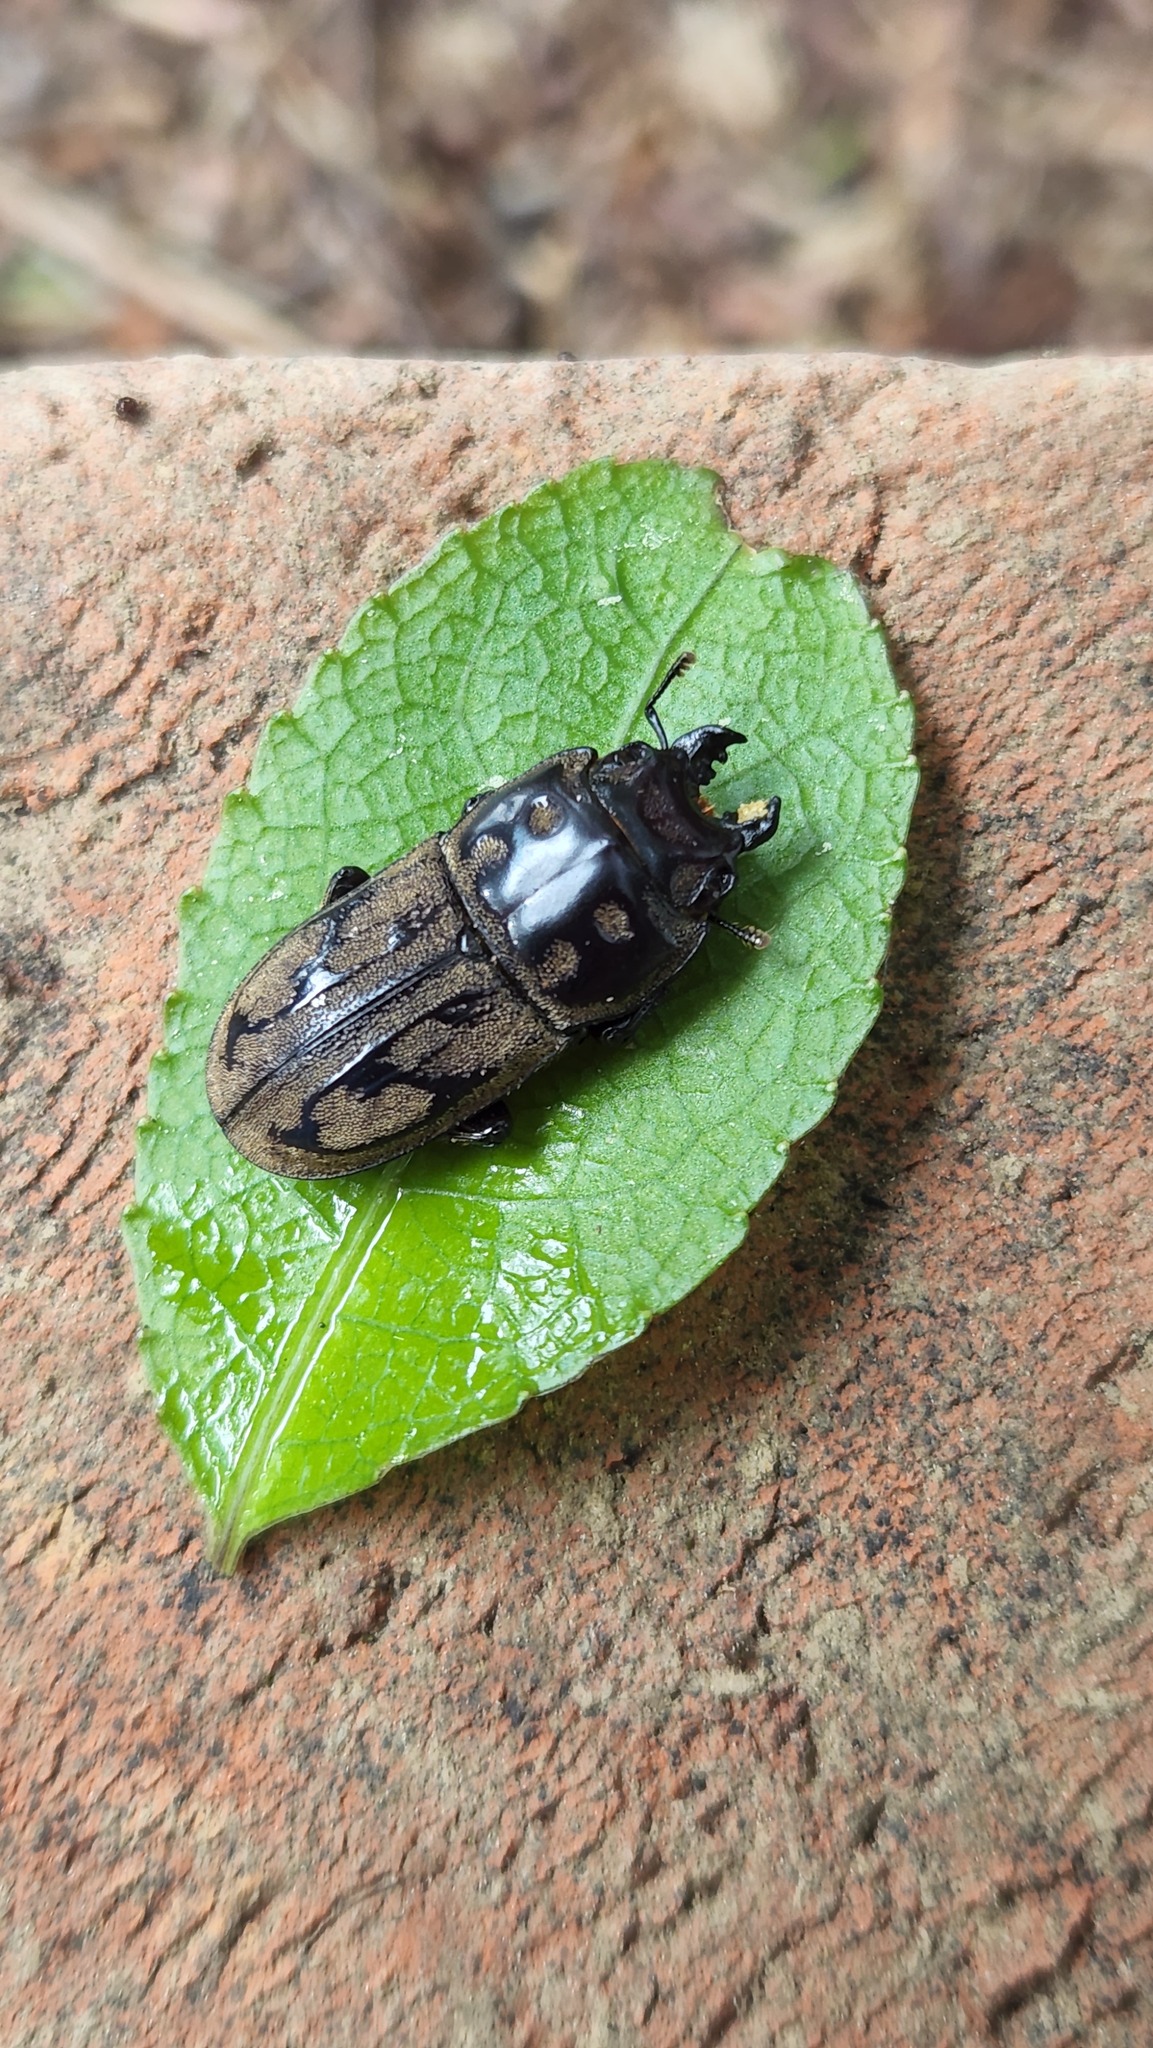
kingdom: Animalia
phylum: Arthropoda
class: Insecta
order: Coleoptera
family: Lucanidae
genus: Paralissotes
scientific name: Paralissotes reticulatus
